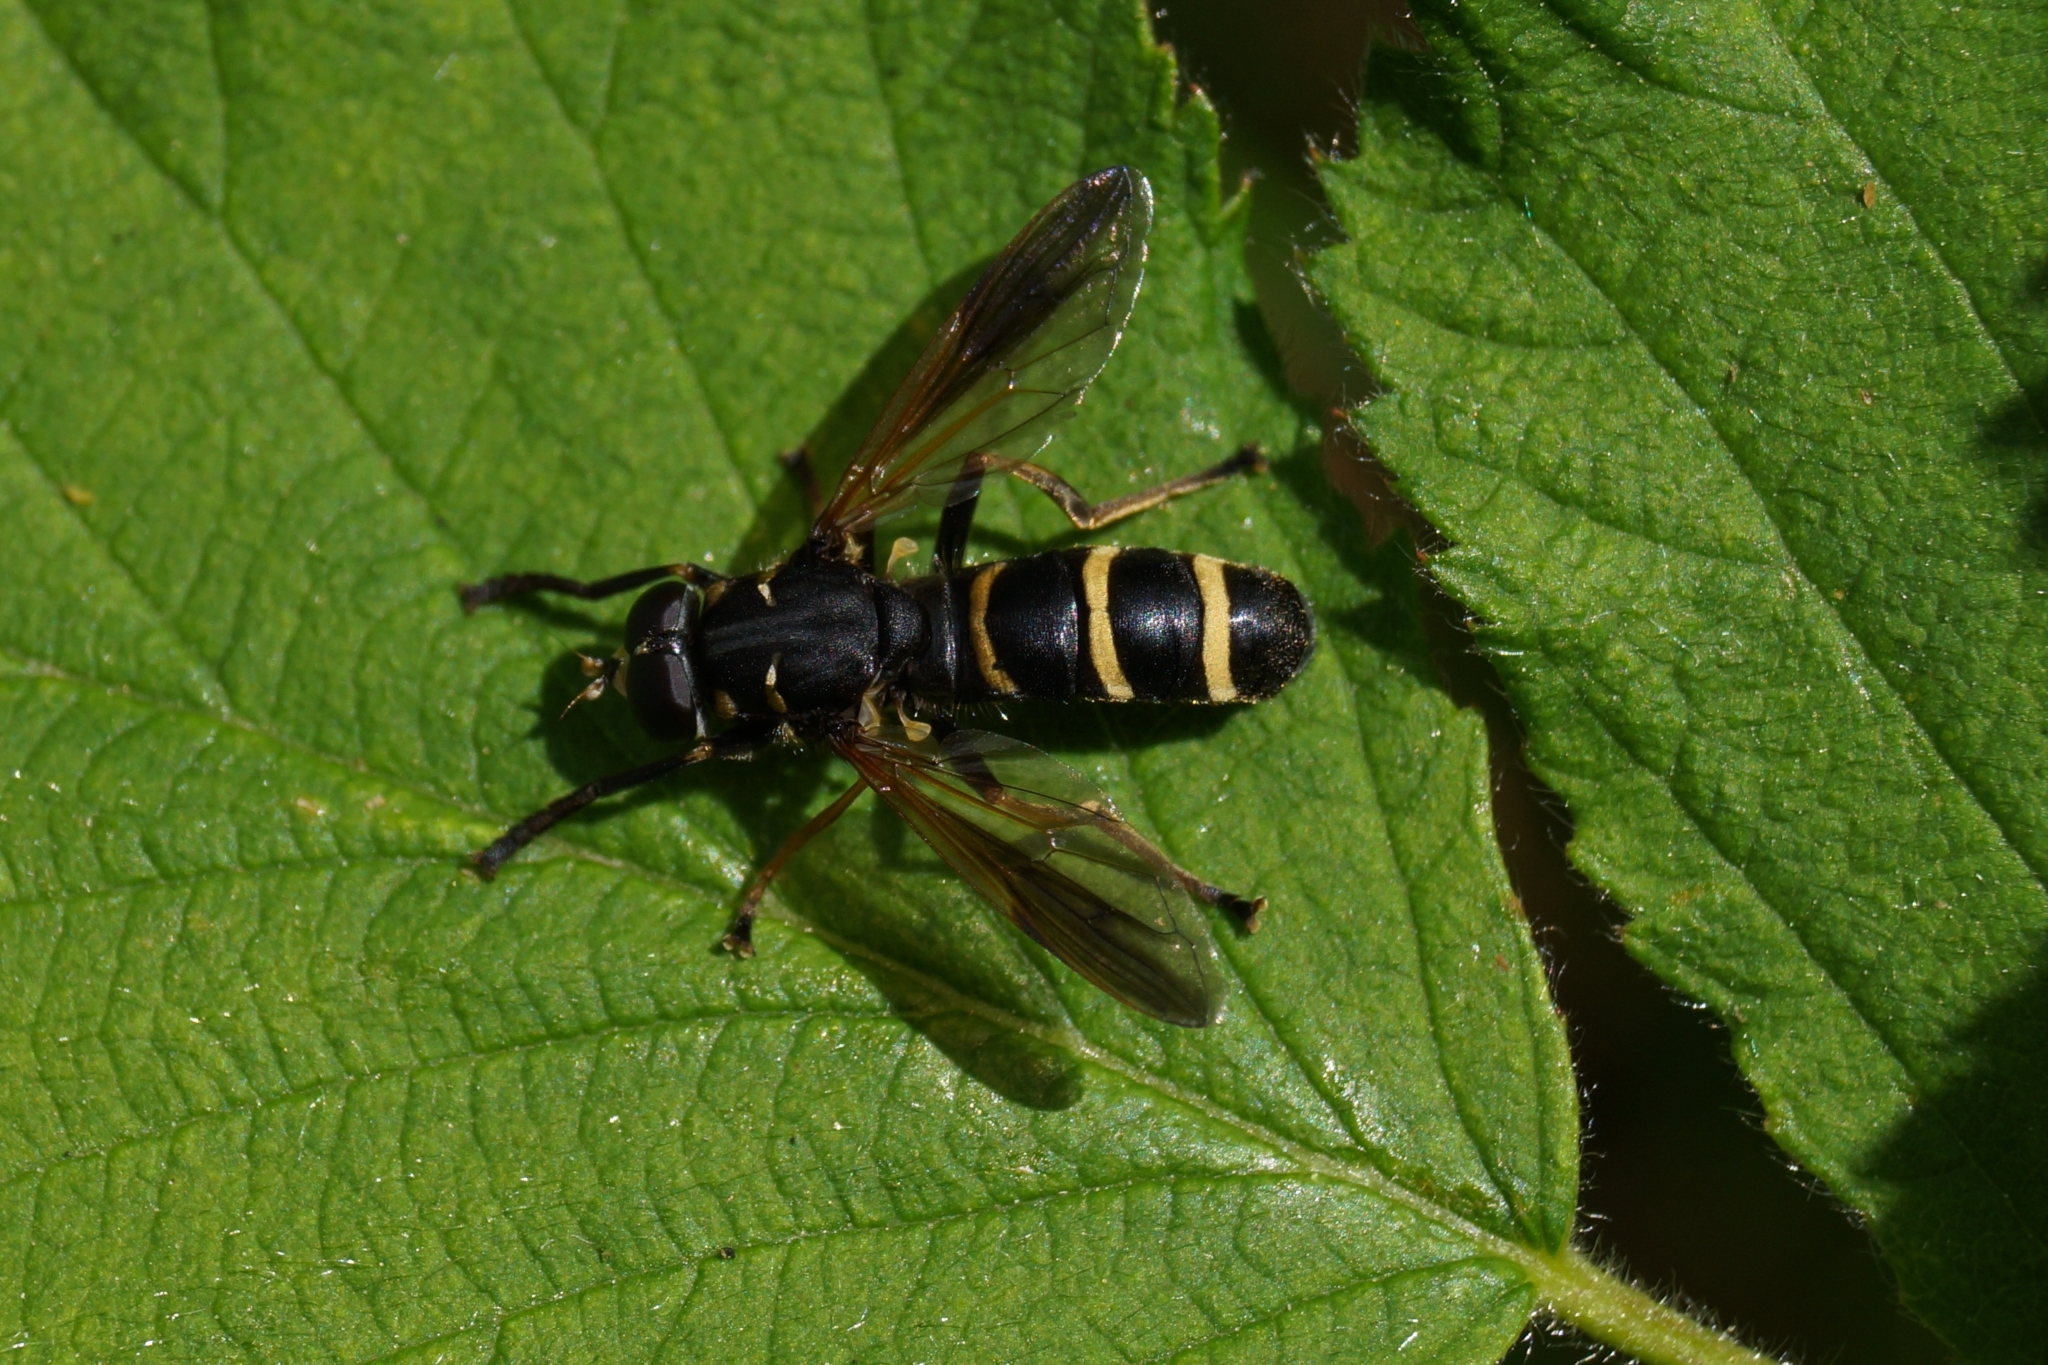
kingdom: Animalia
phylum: Arthropoda
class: Insecta
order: Diptera
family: Syrphidae
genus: Temnostoma
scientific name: Temnostoma bombylans
